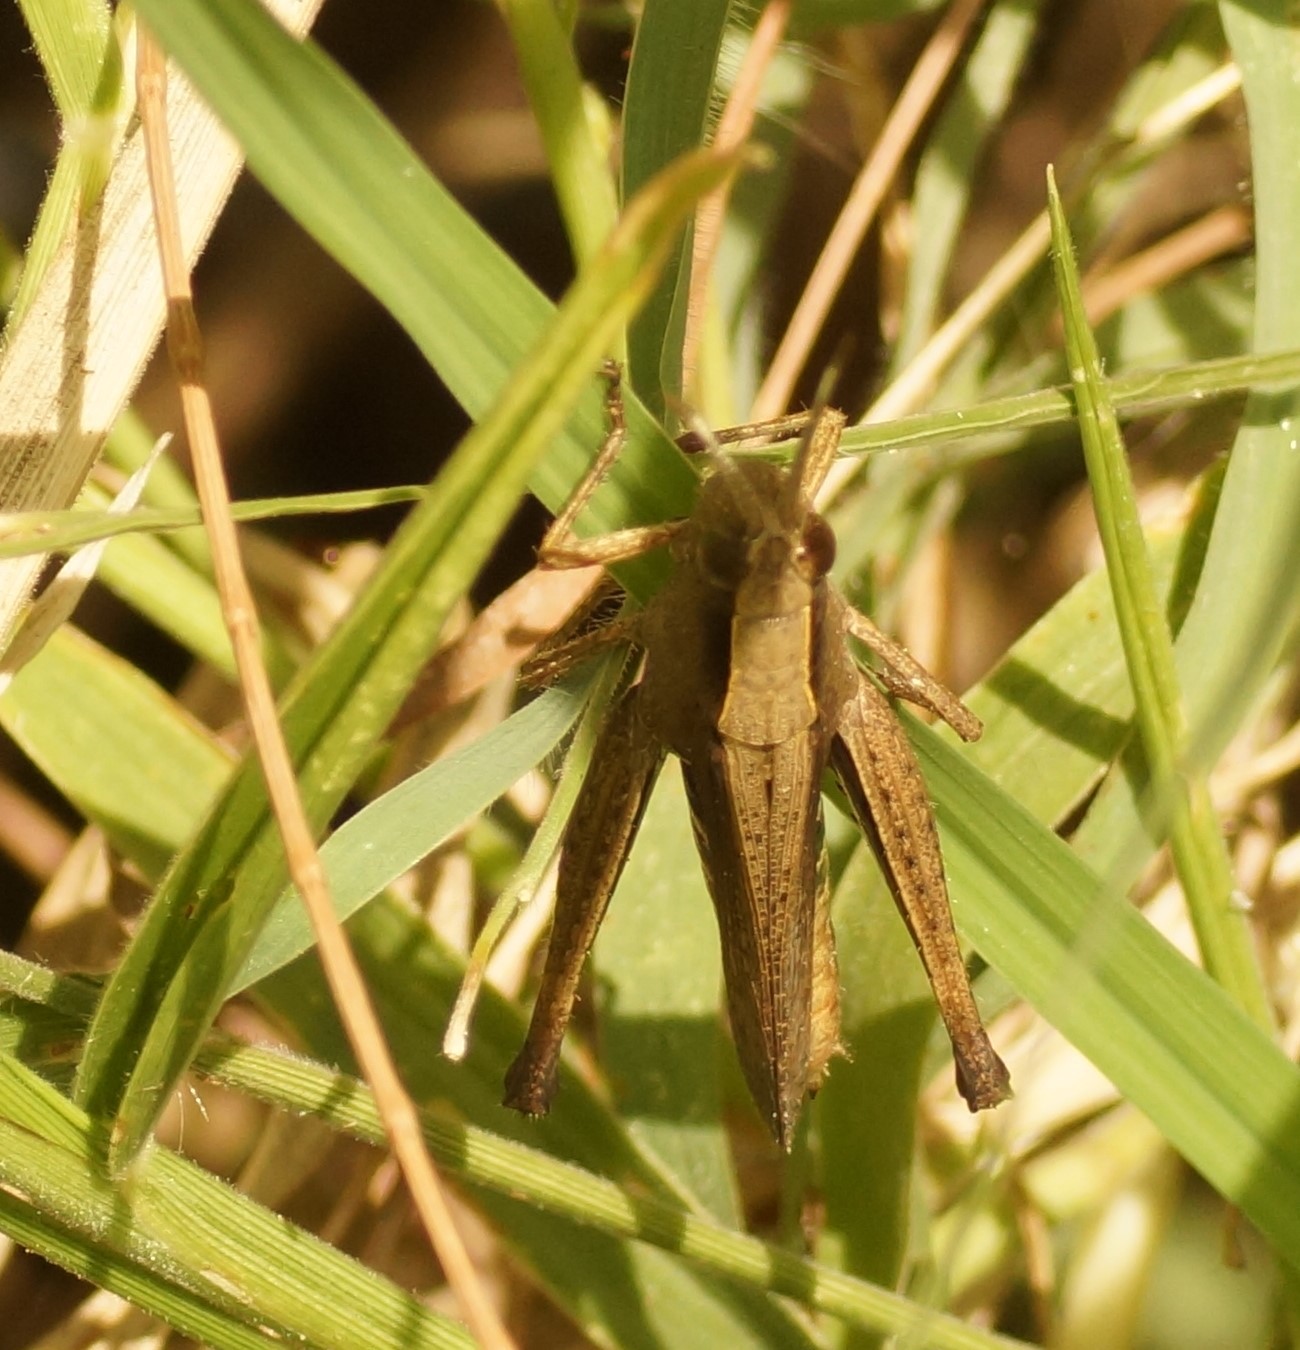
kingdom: Animalia
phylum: Arthropoda
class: Insecta
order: Orthoptera
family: Acrididae
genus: Rectitropis
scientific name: Rectitropis
